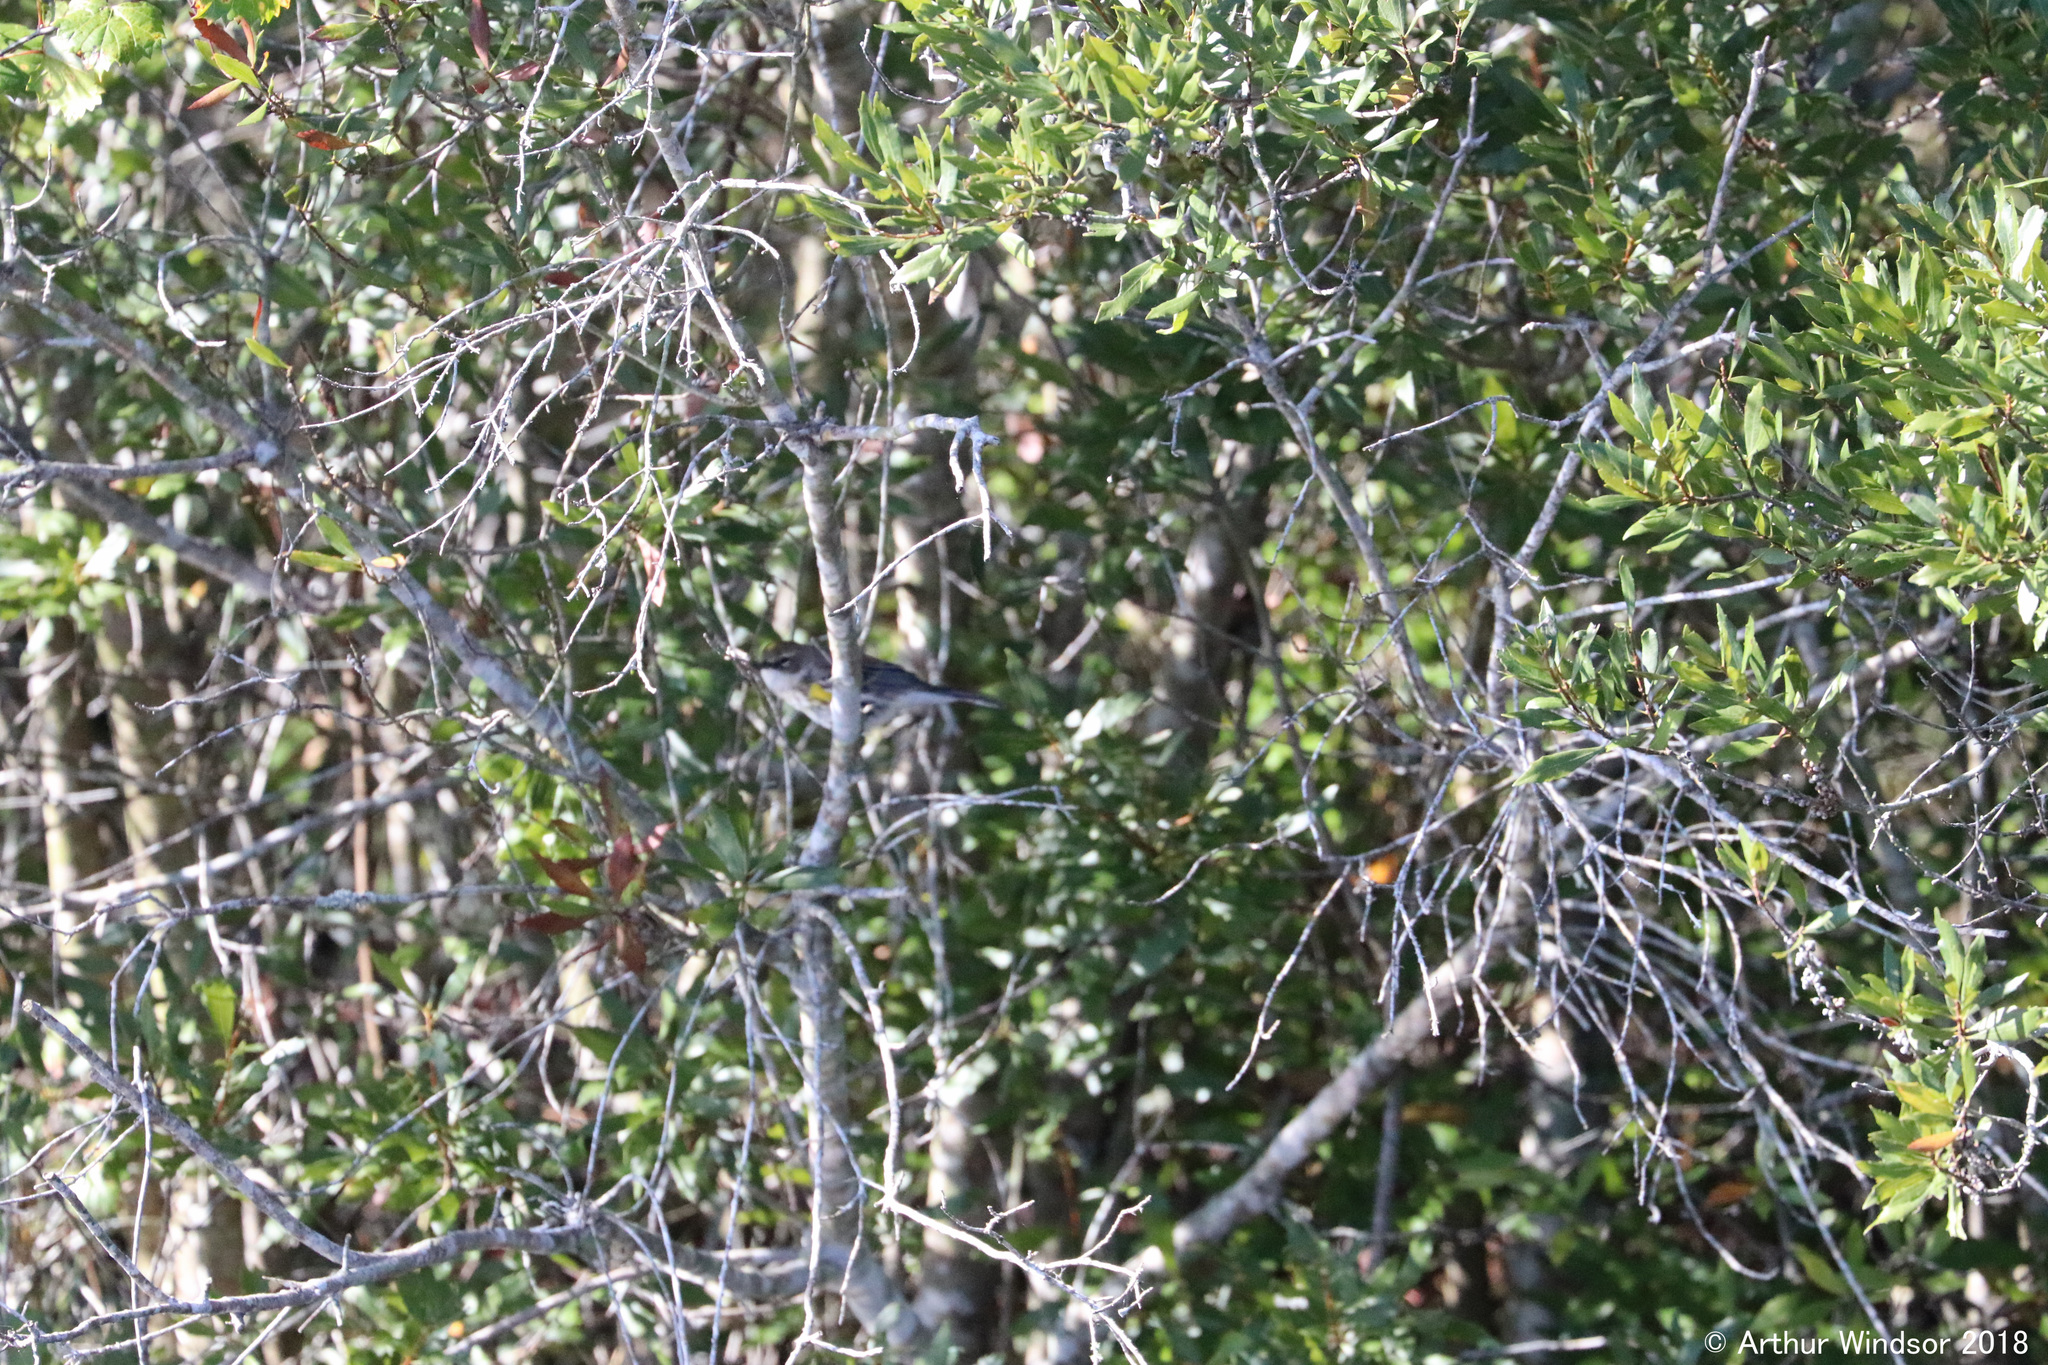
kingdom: Animalia
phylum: Chordata
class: Aves
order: Passeriformes
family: Parulidae
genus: Setophaga
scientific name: Setophaga coronata
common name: Myrtle warbler
